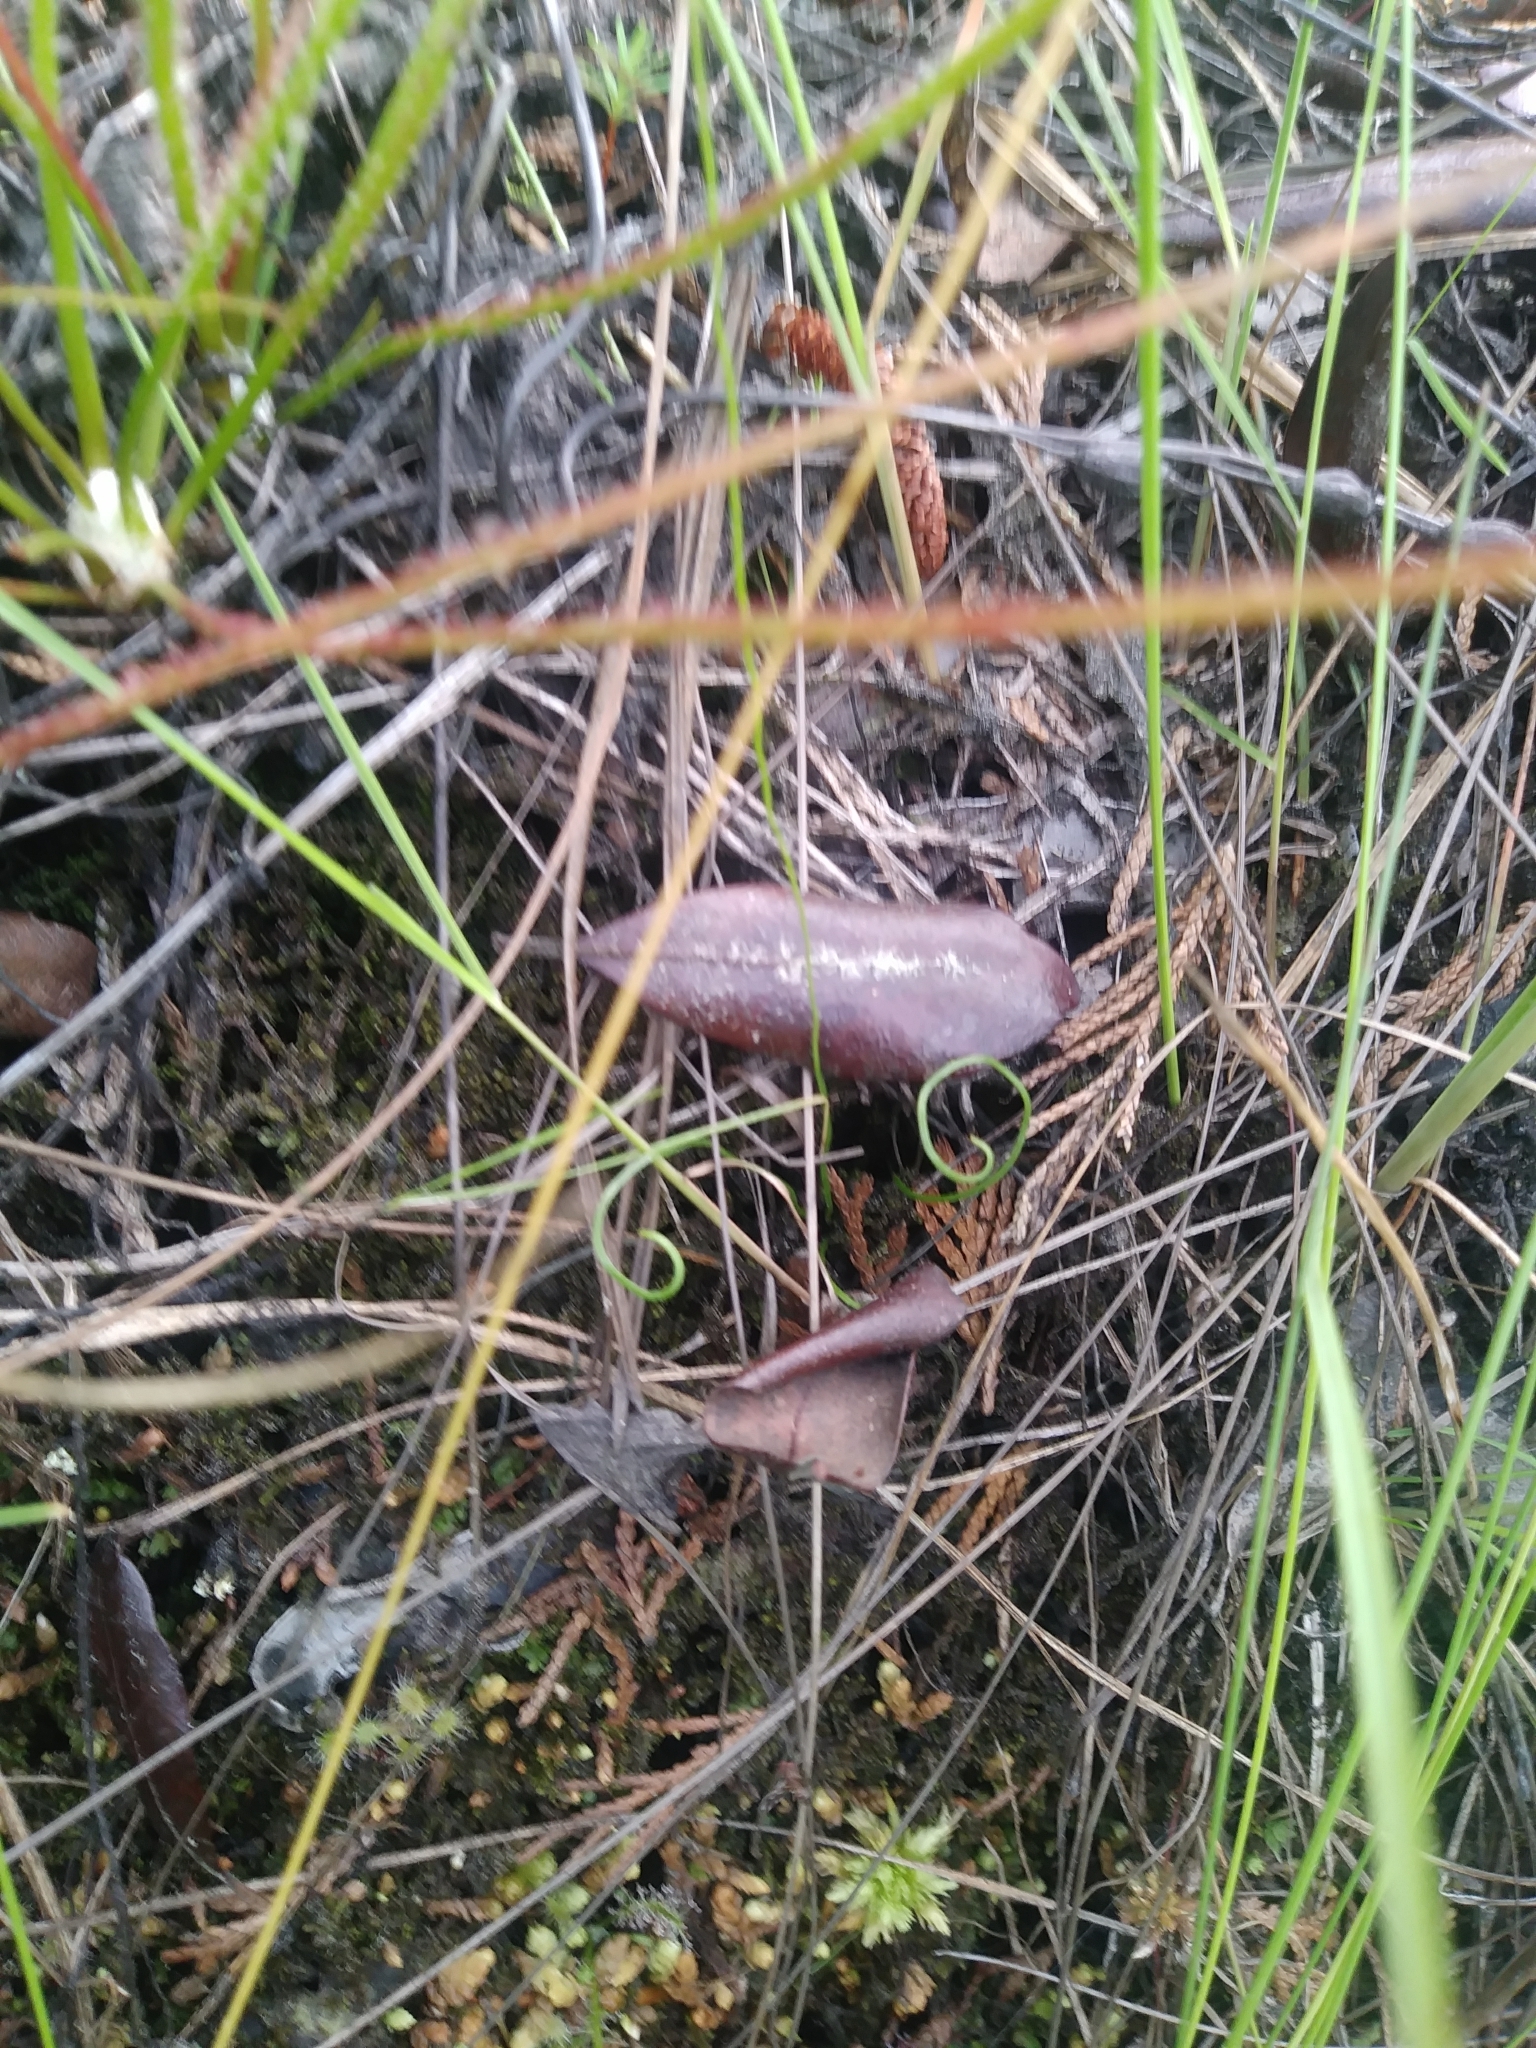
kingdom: Plantae
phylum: Tracheophyta
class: Polypodiopsida
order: Schizaeales
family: Schizaeaceae
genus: Schizaea
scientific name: Schizaea pusilla
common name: Curly-grass fern
